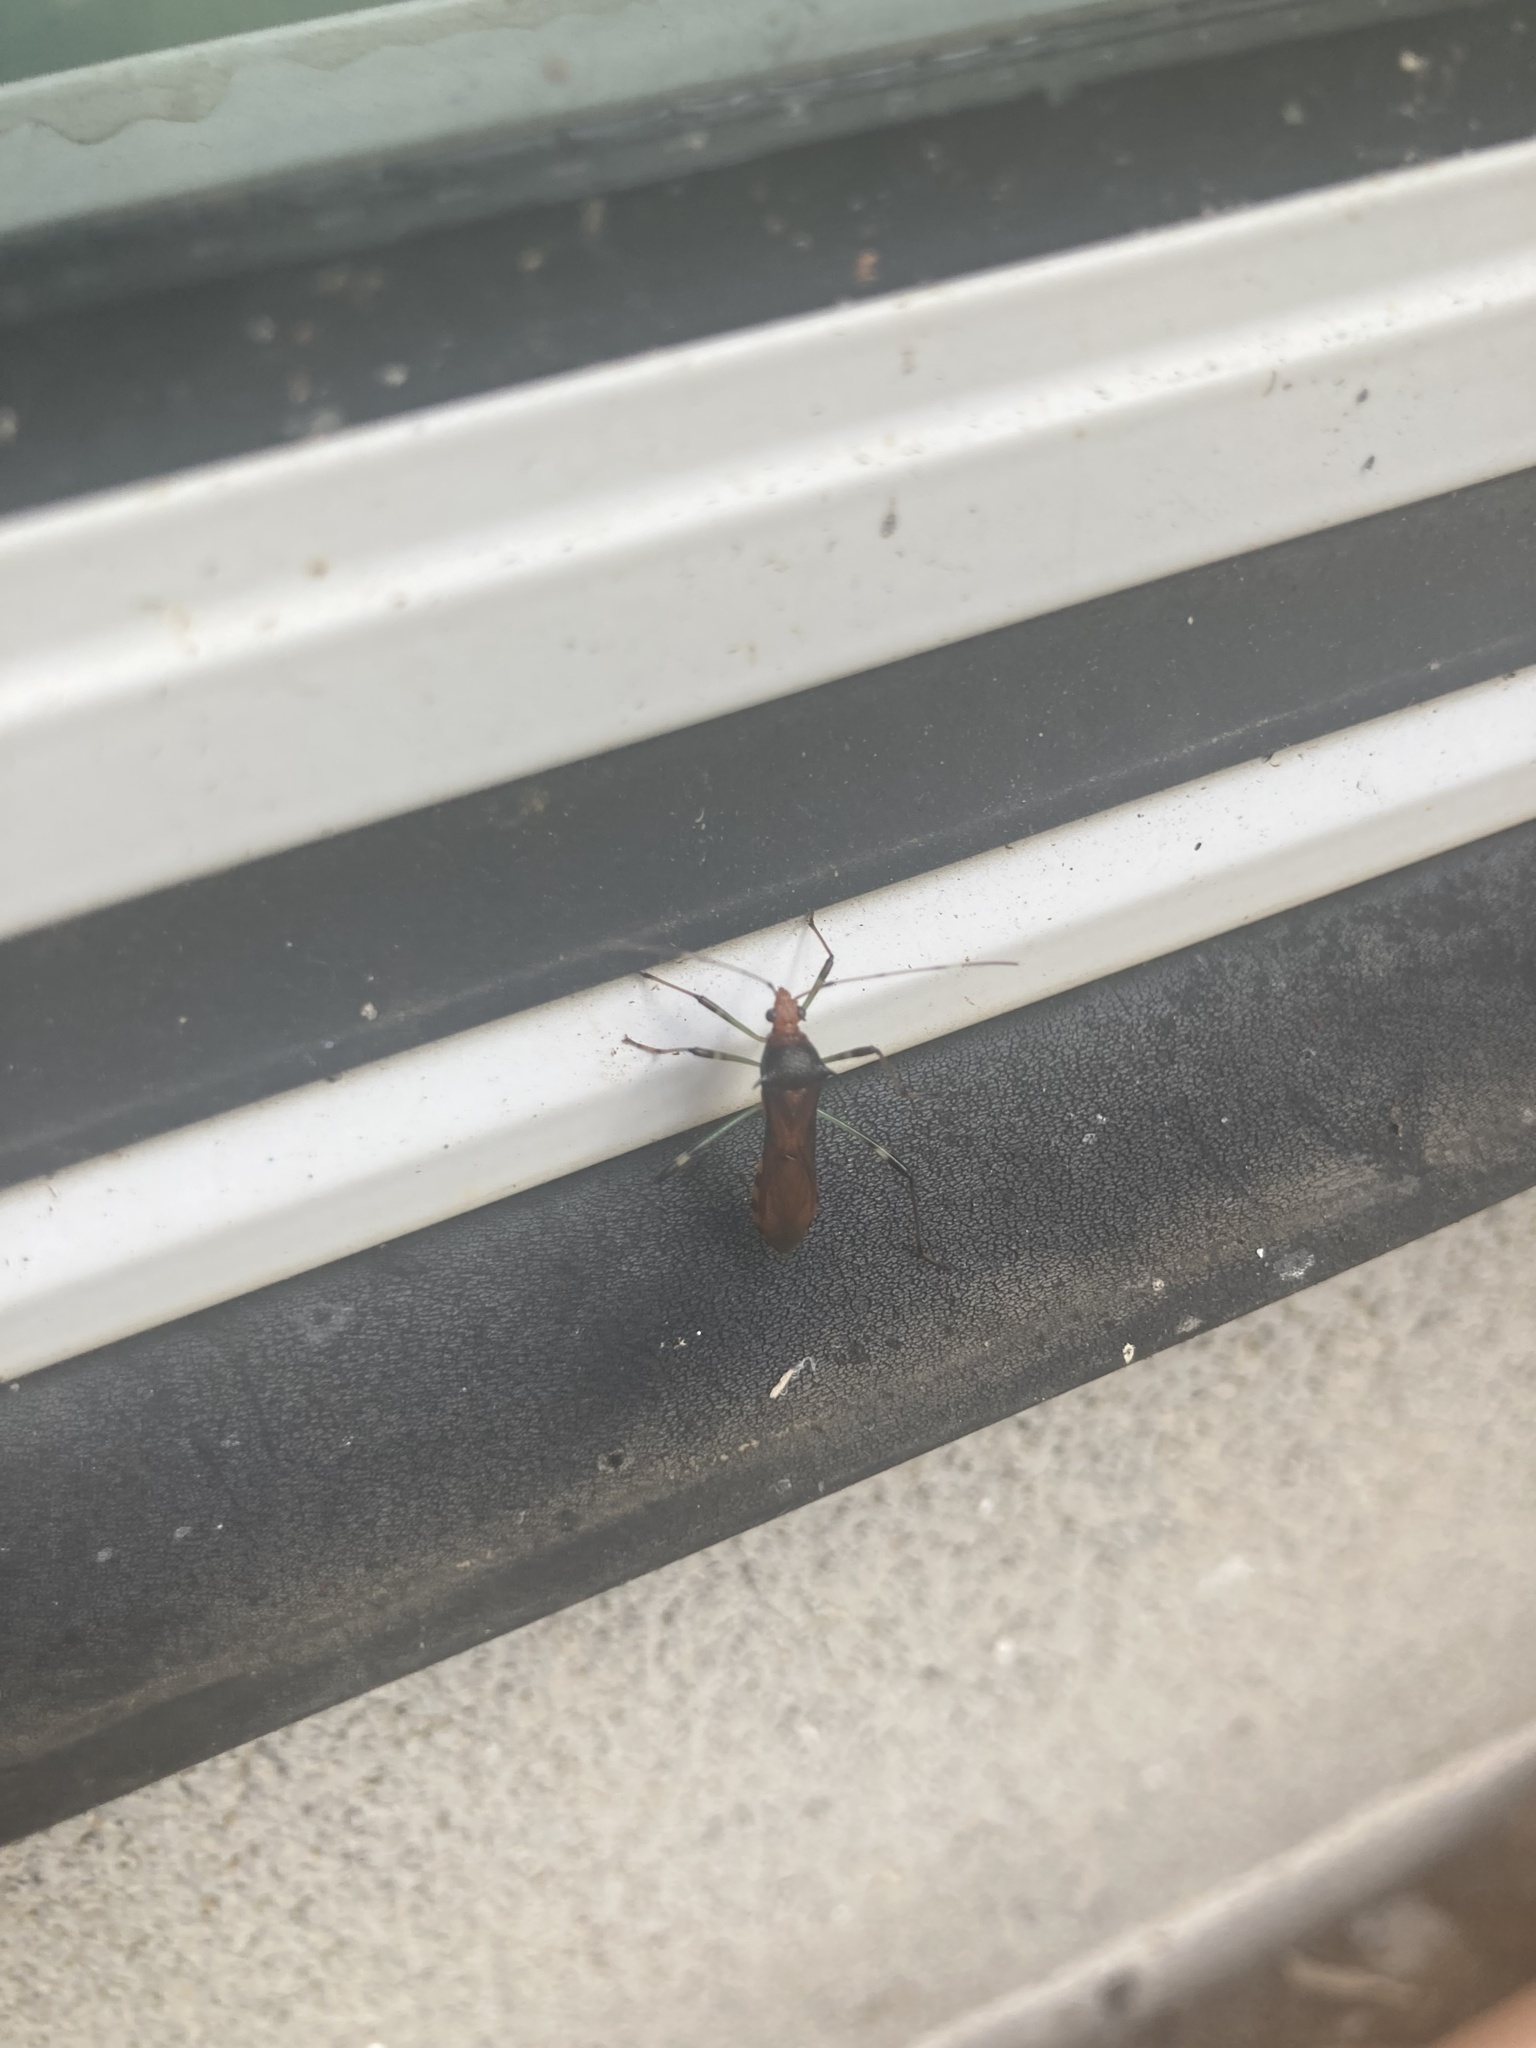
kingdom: Animalia
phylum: Arthropoda
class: Insecta
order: Hemiptera
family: Alydidae
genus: Noliphus
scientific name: Noliphus erythrocephalus
